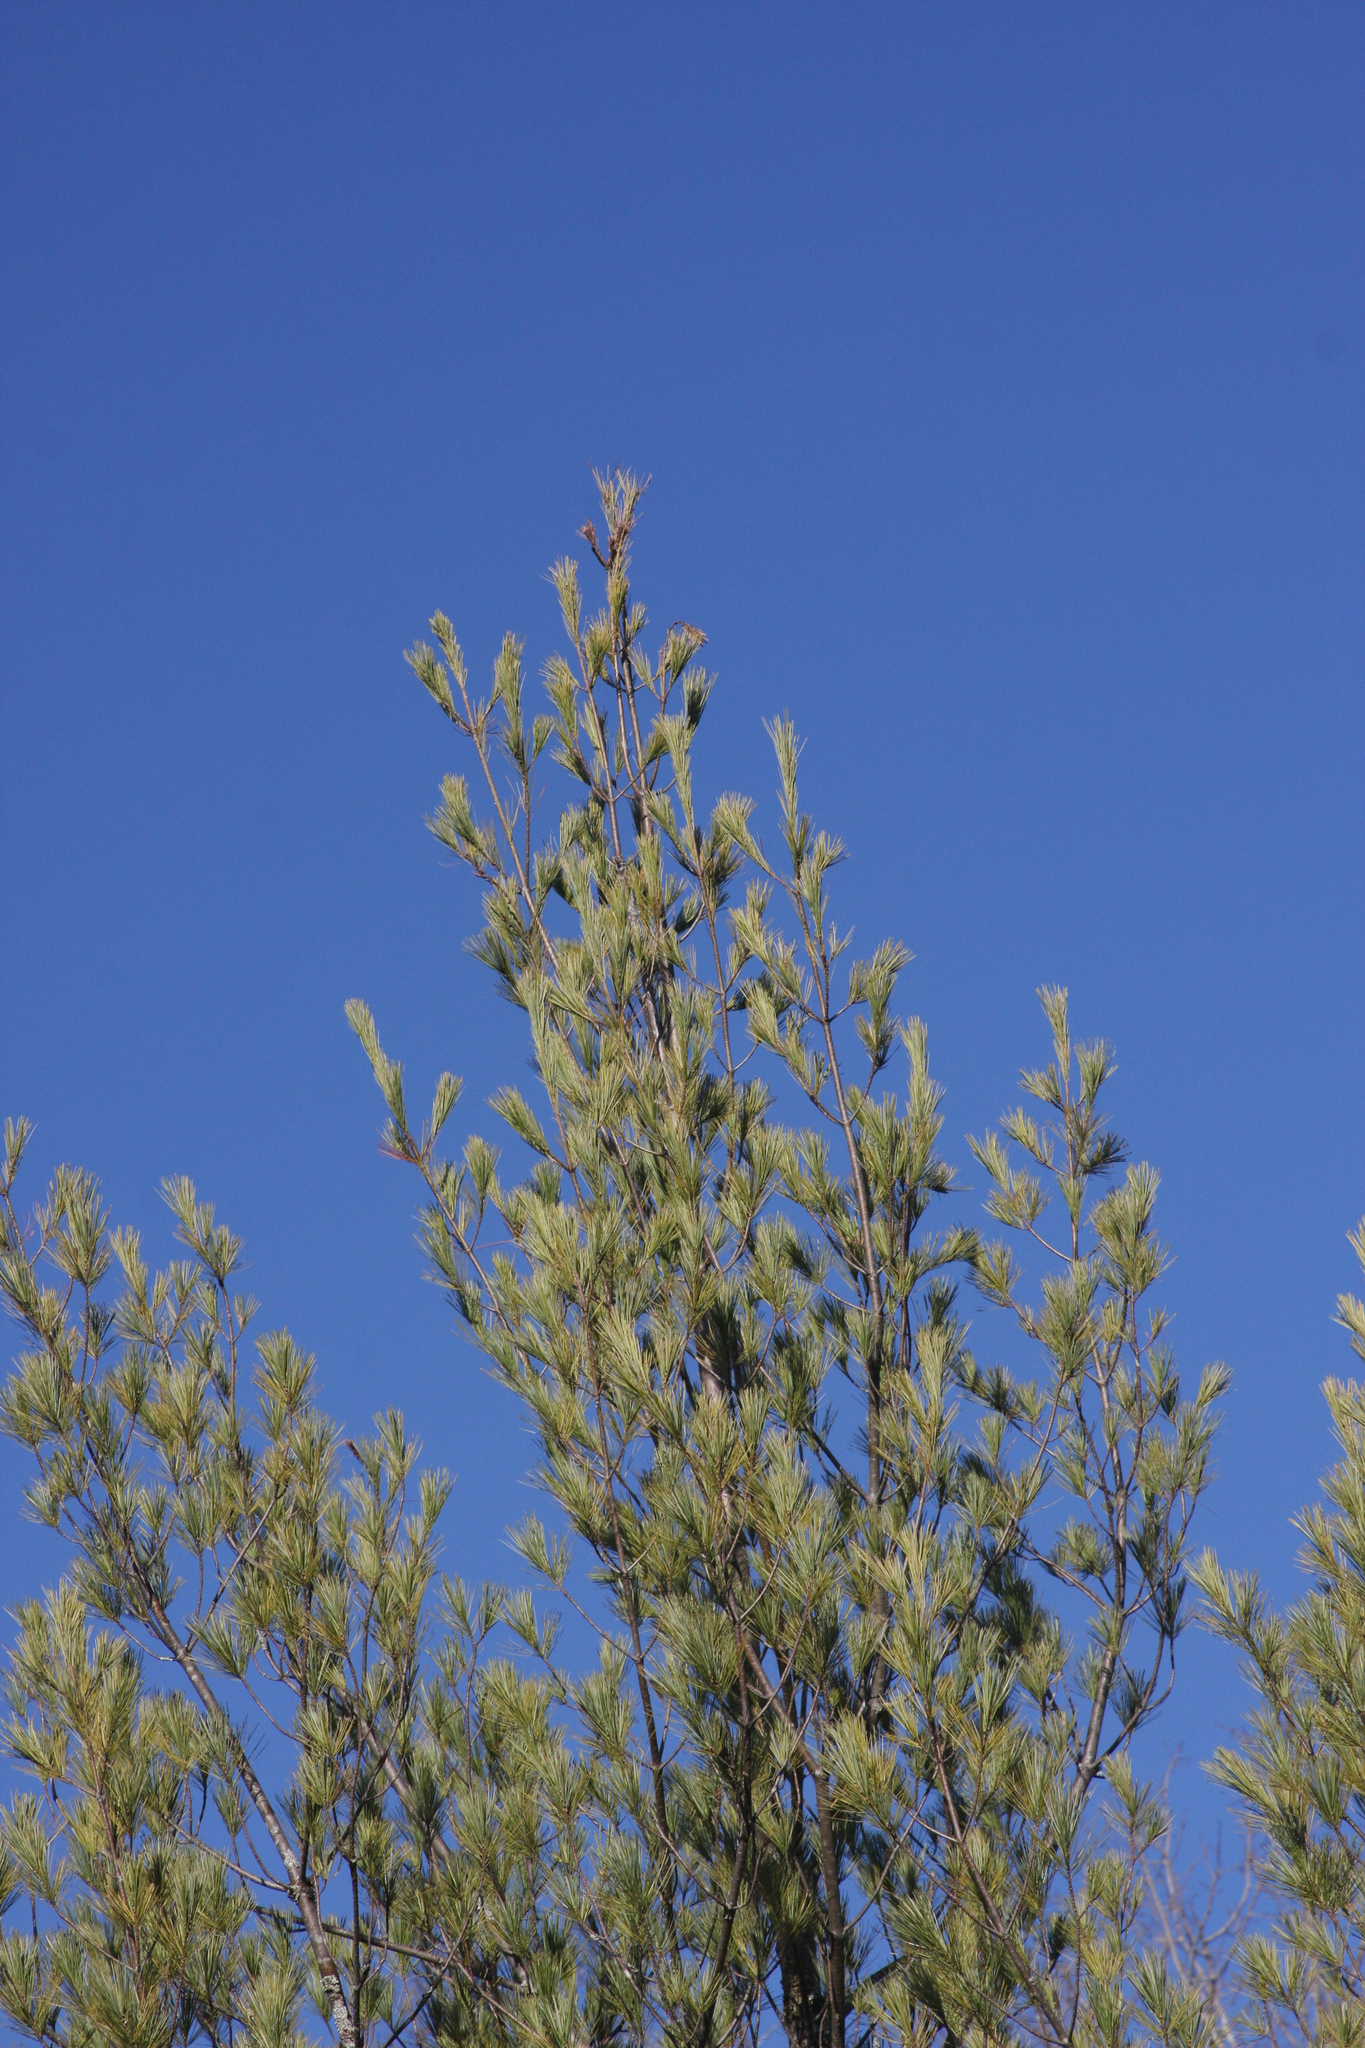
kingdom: Plantae
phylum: Tracheophyta
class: Pinopsida
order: Pinales
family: Pinaceae
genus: Pinus
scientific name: Pinus strobus
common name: Weymouth pine
